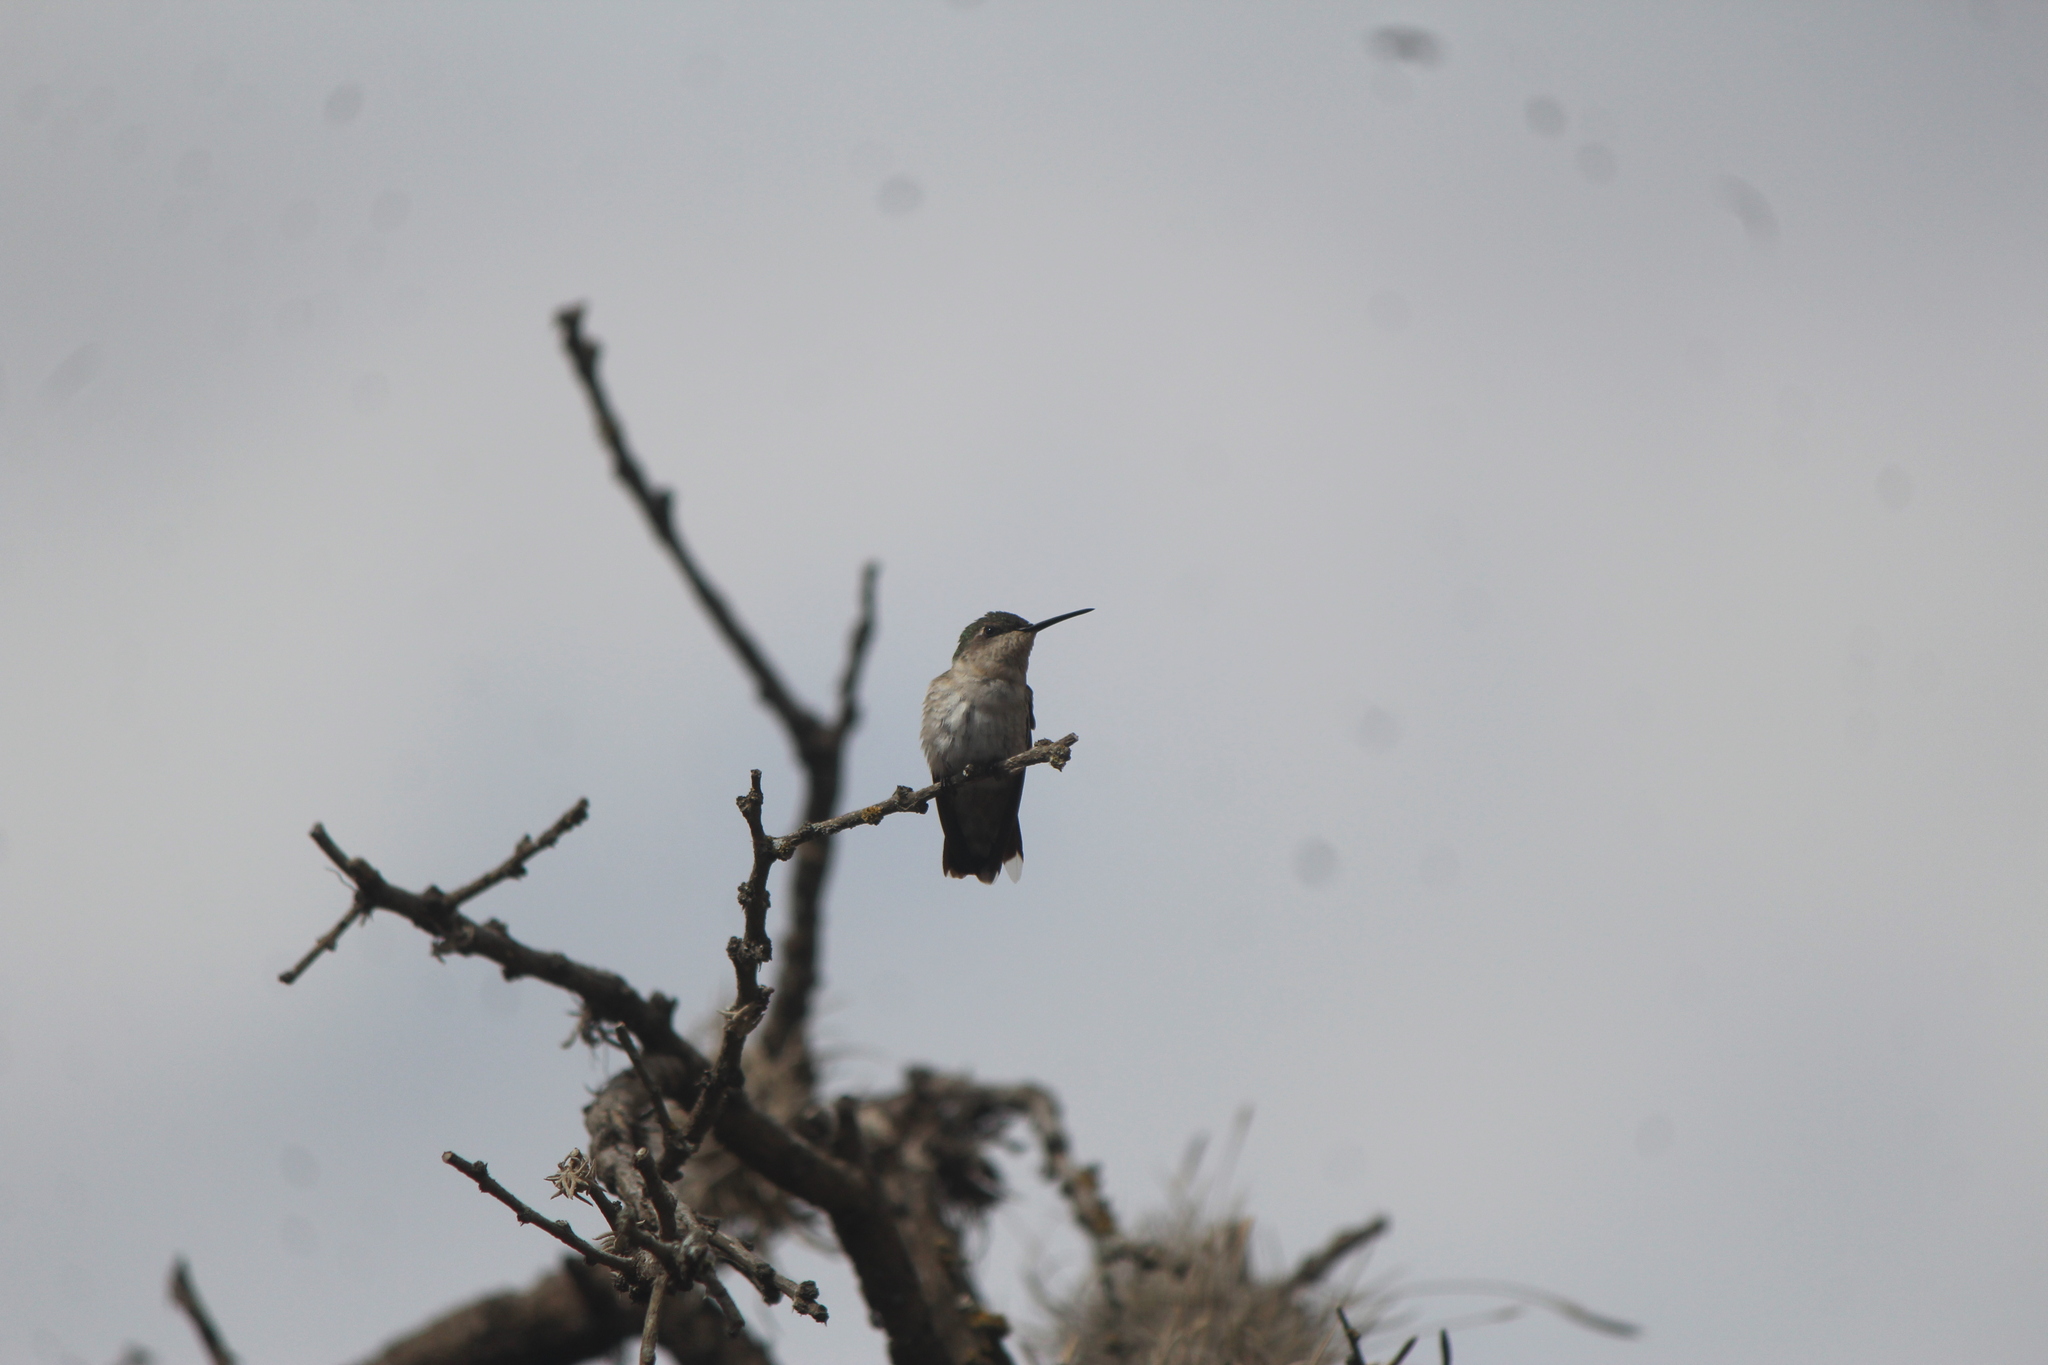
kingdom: Animalia
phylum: Chordata
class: Aves
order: Apodiformes
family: Trochilidae
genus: Archilochus
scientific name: Archilochus colubris
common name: Ruby-throated hummingbird
